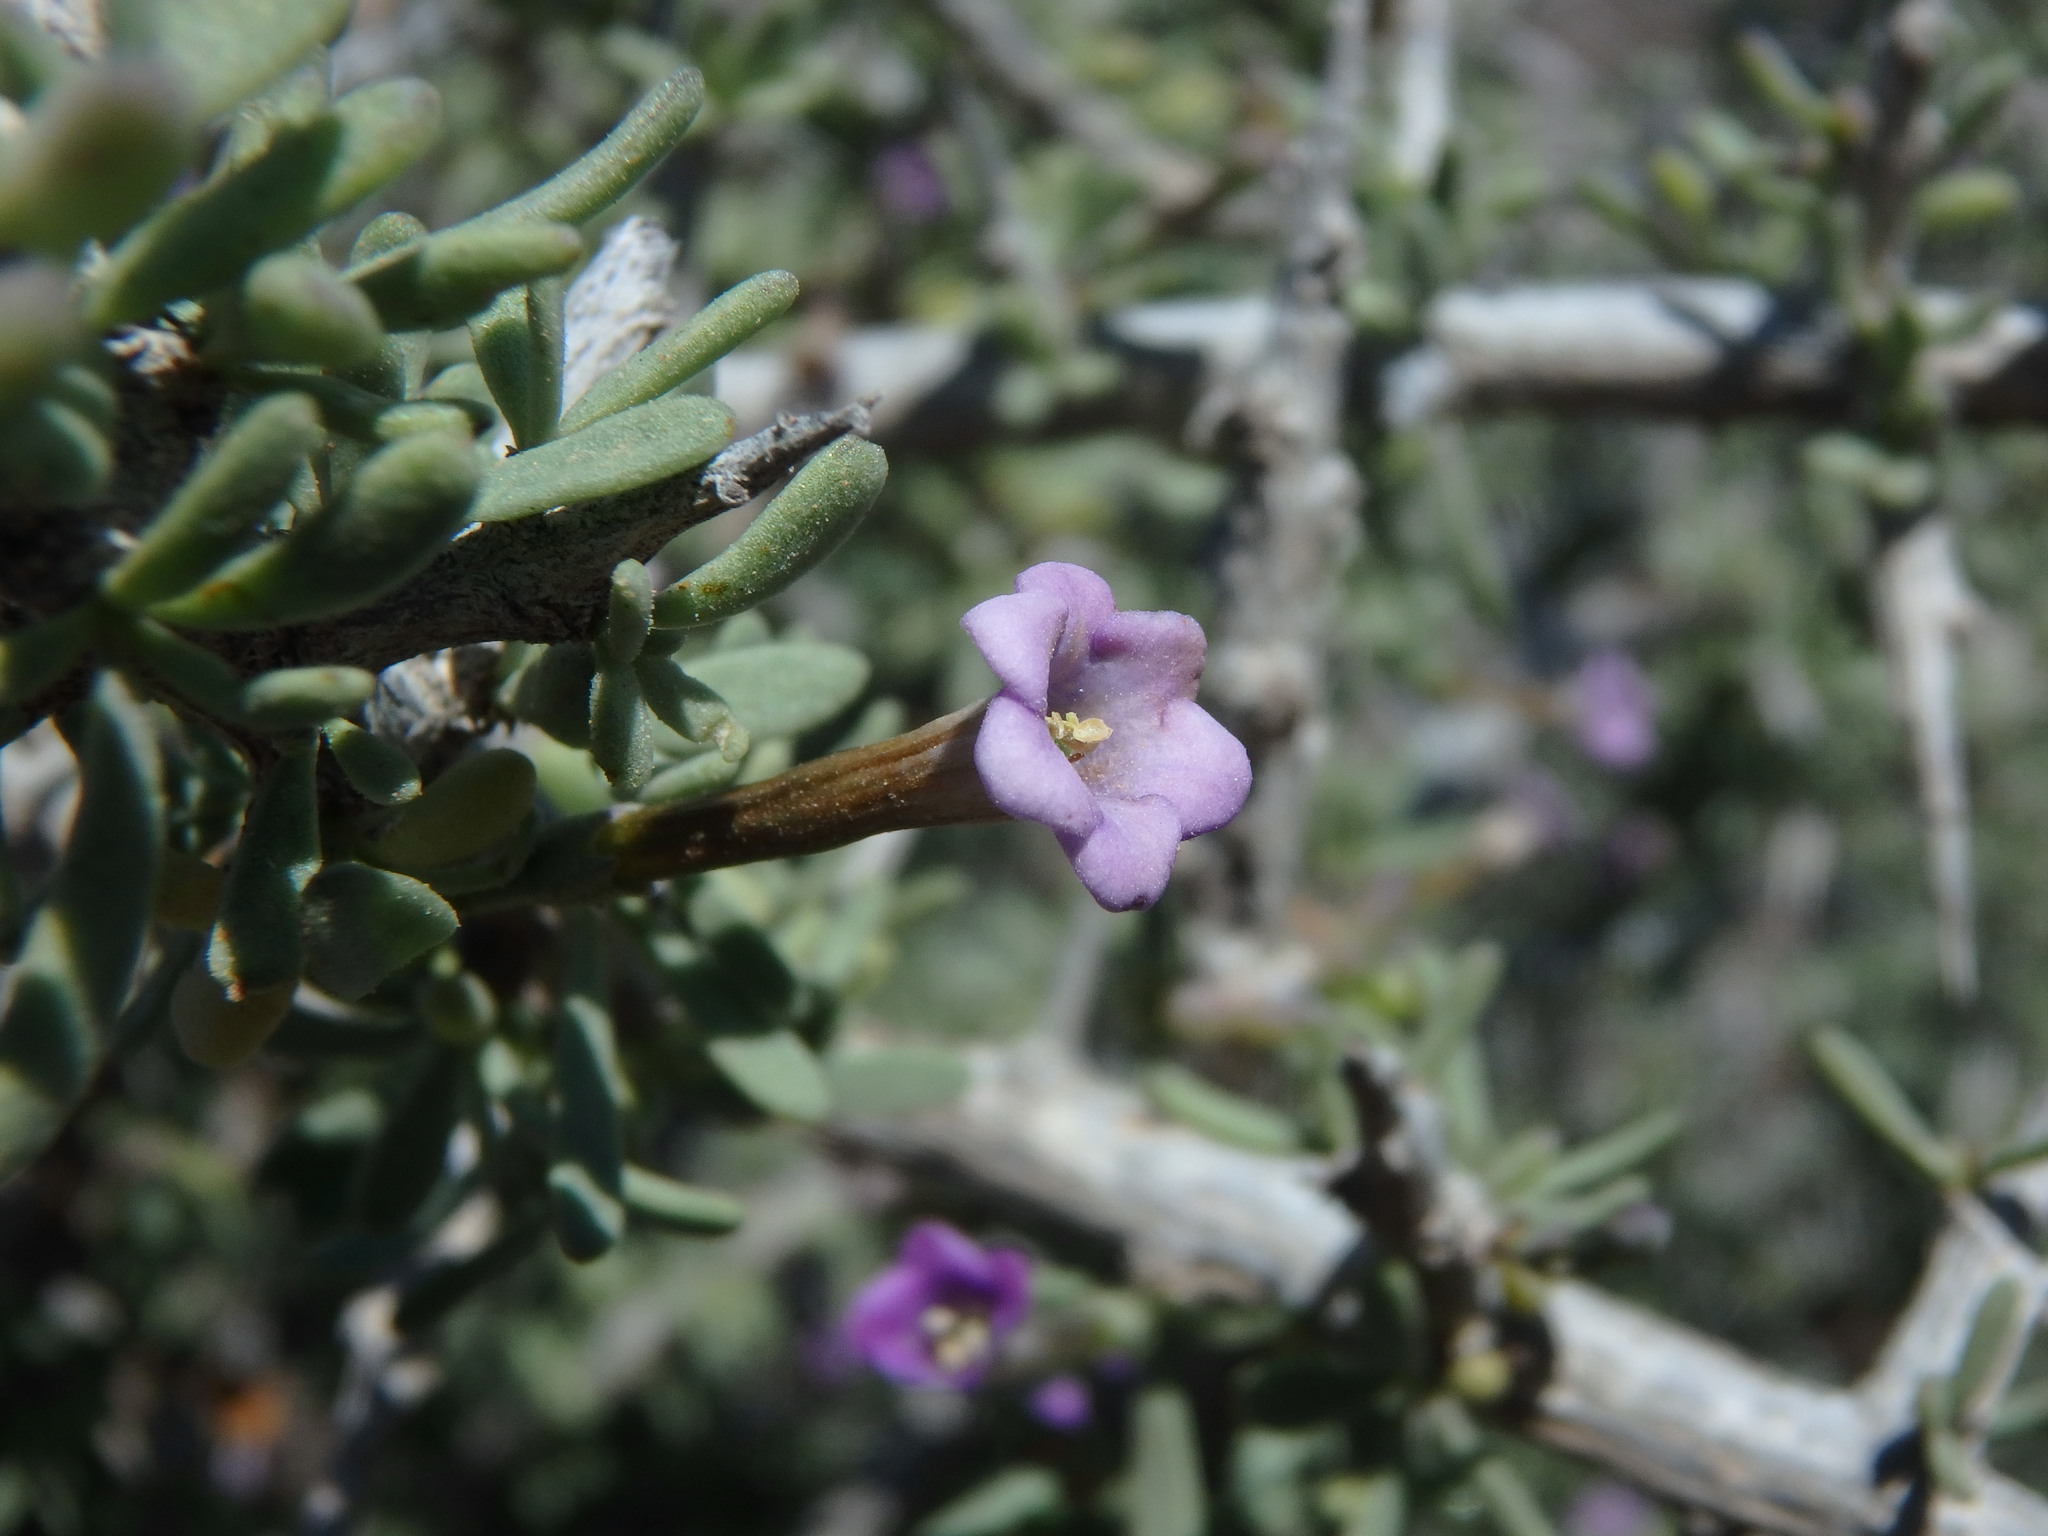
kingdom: Plantae
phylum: Tracheophyta
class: Magnoliopsida
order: Solanales
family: Solanaceae
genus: Lycium
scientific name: Lycium intricatum
